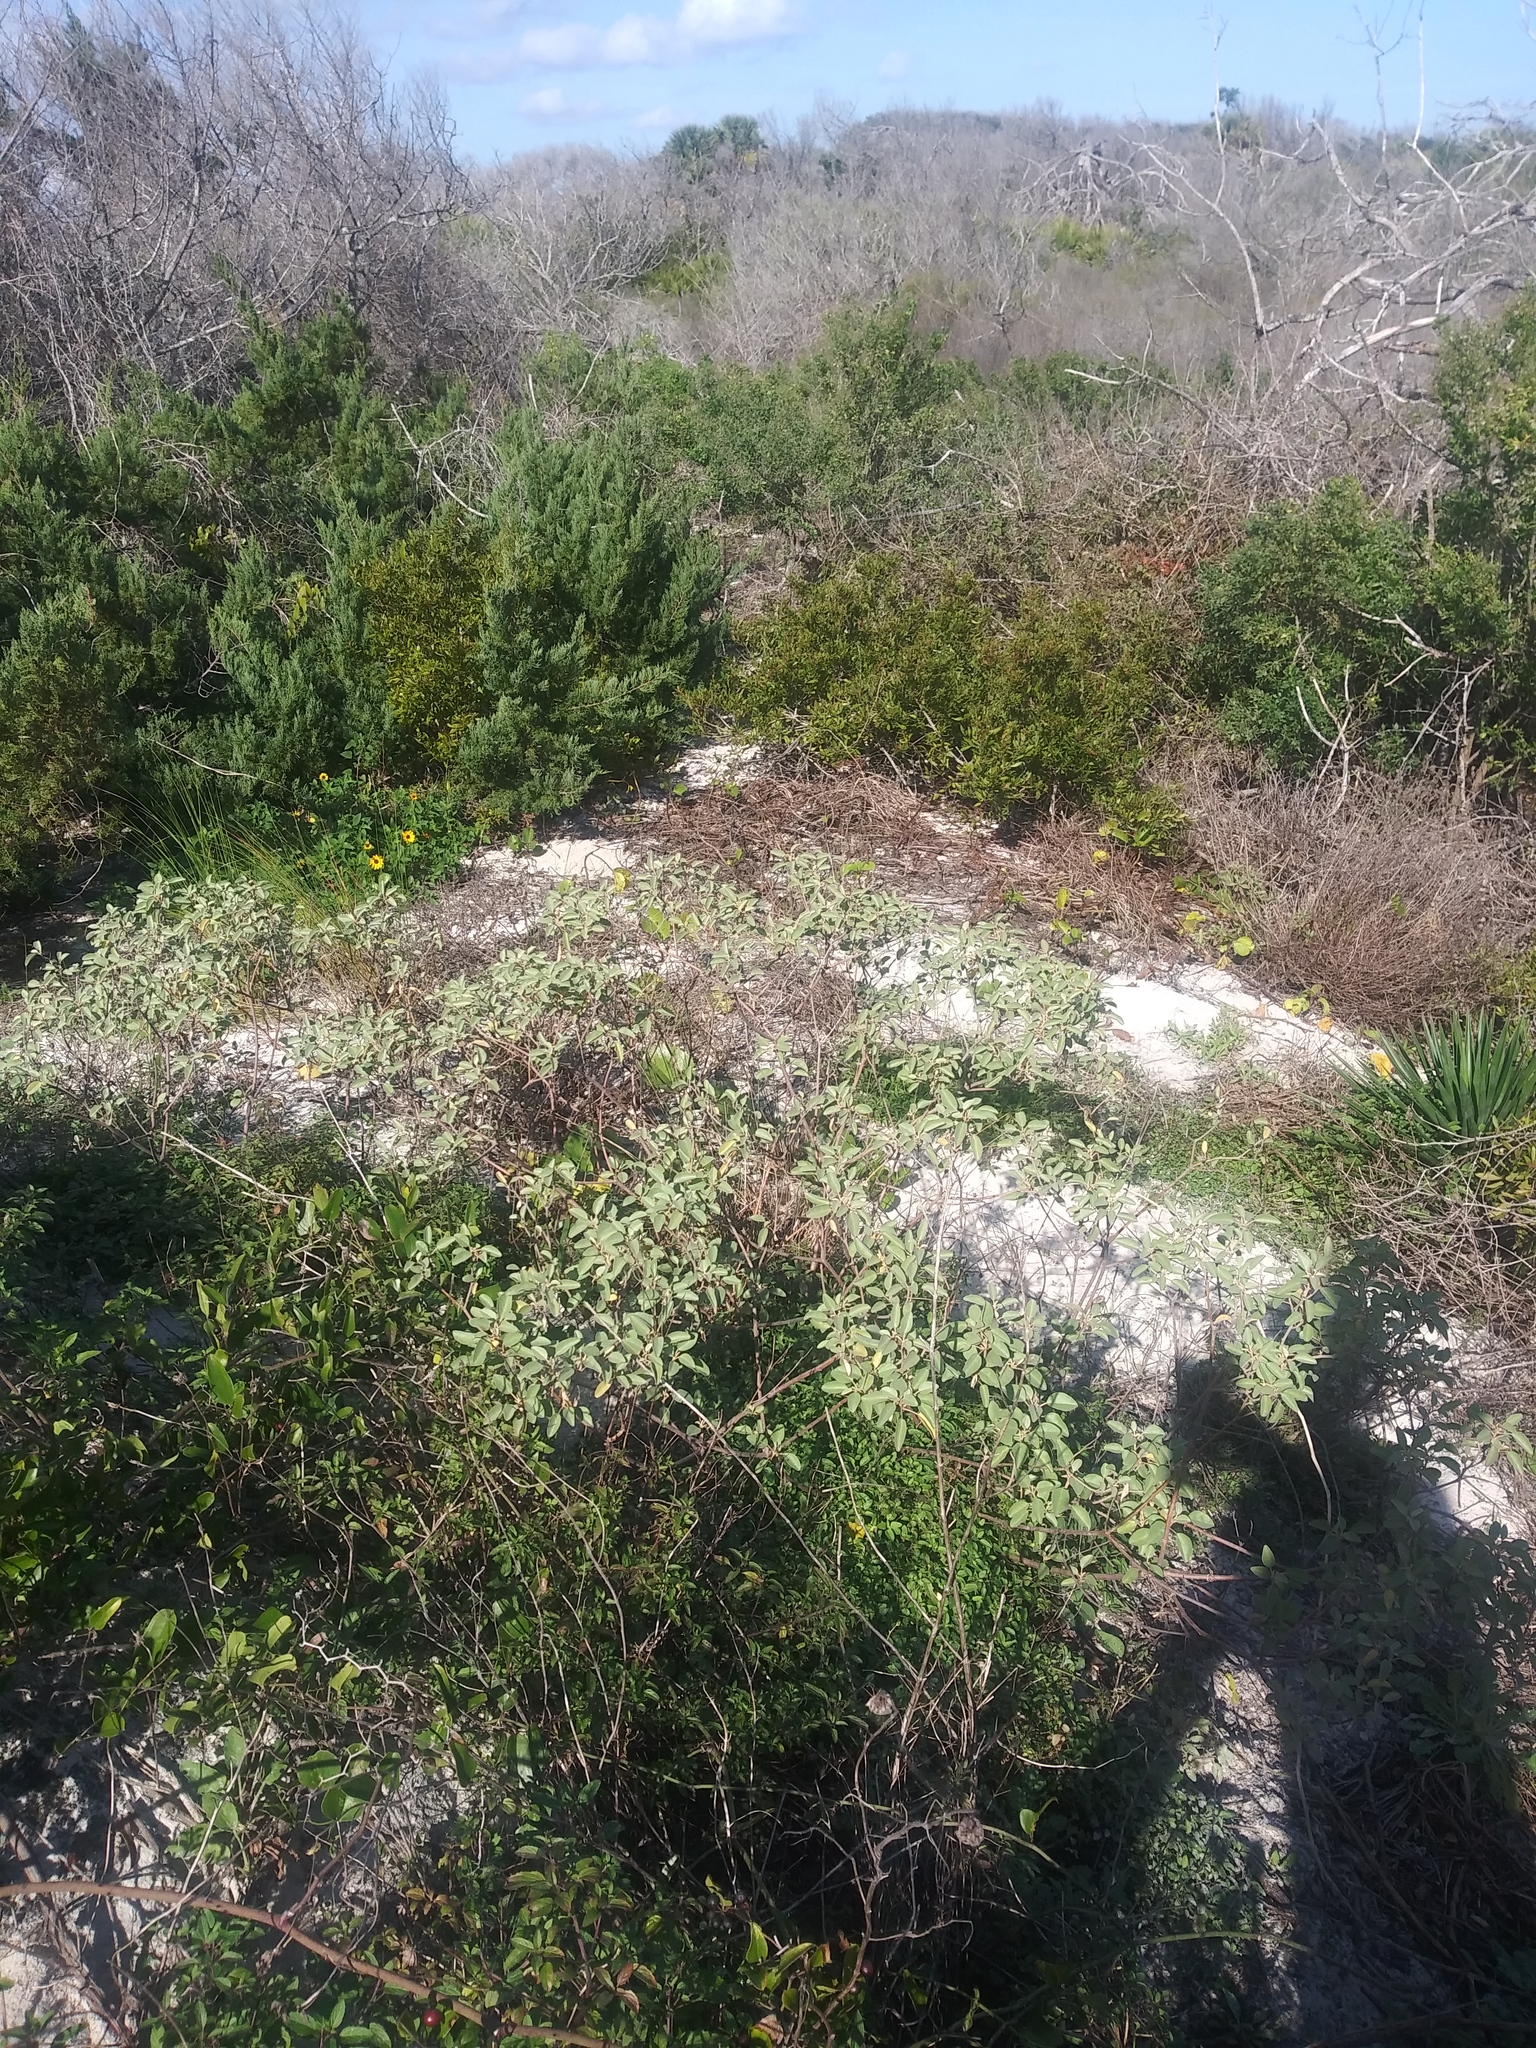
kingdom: Plantae
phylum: Tracheophyta
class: Magnoliopsida
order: Malpighiales
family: Euphorbiaceae
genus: Croton
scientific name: Croton punctatus
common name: Beach-tea
